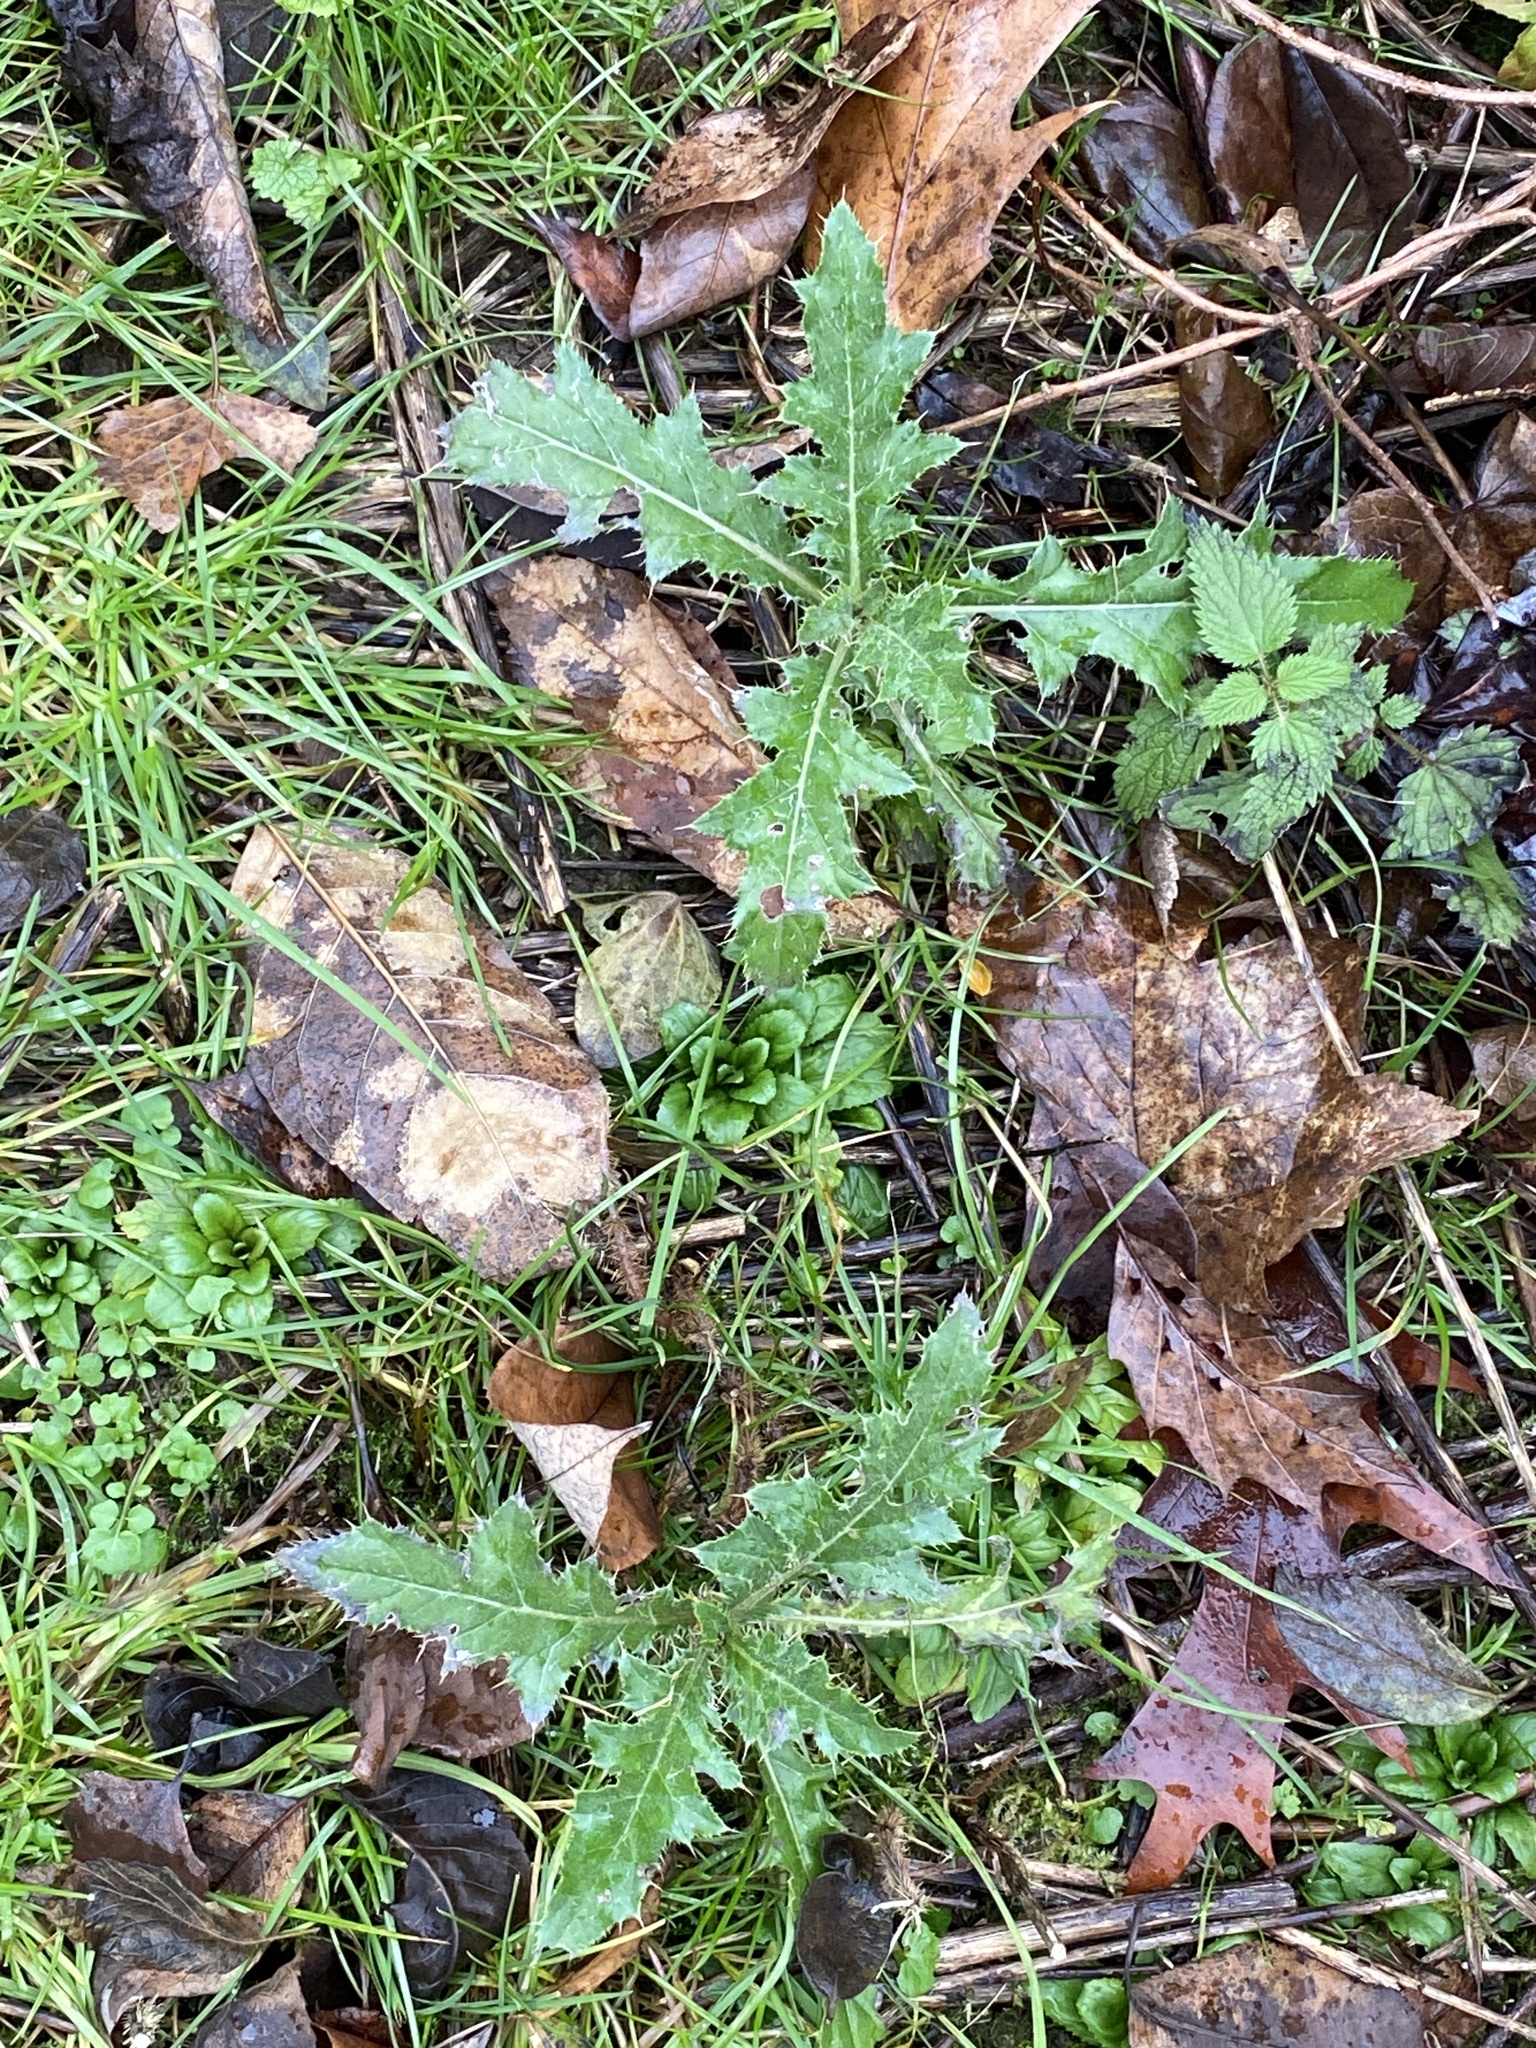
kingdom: Plantae
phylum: Tracheophyta
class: Magnoliopsida
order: Asterales
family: Asteraceae
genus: Cirsium
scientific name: Cirsium arvense
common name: Creeping thistle
